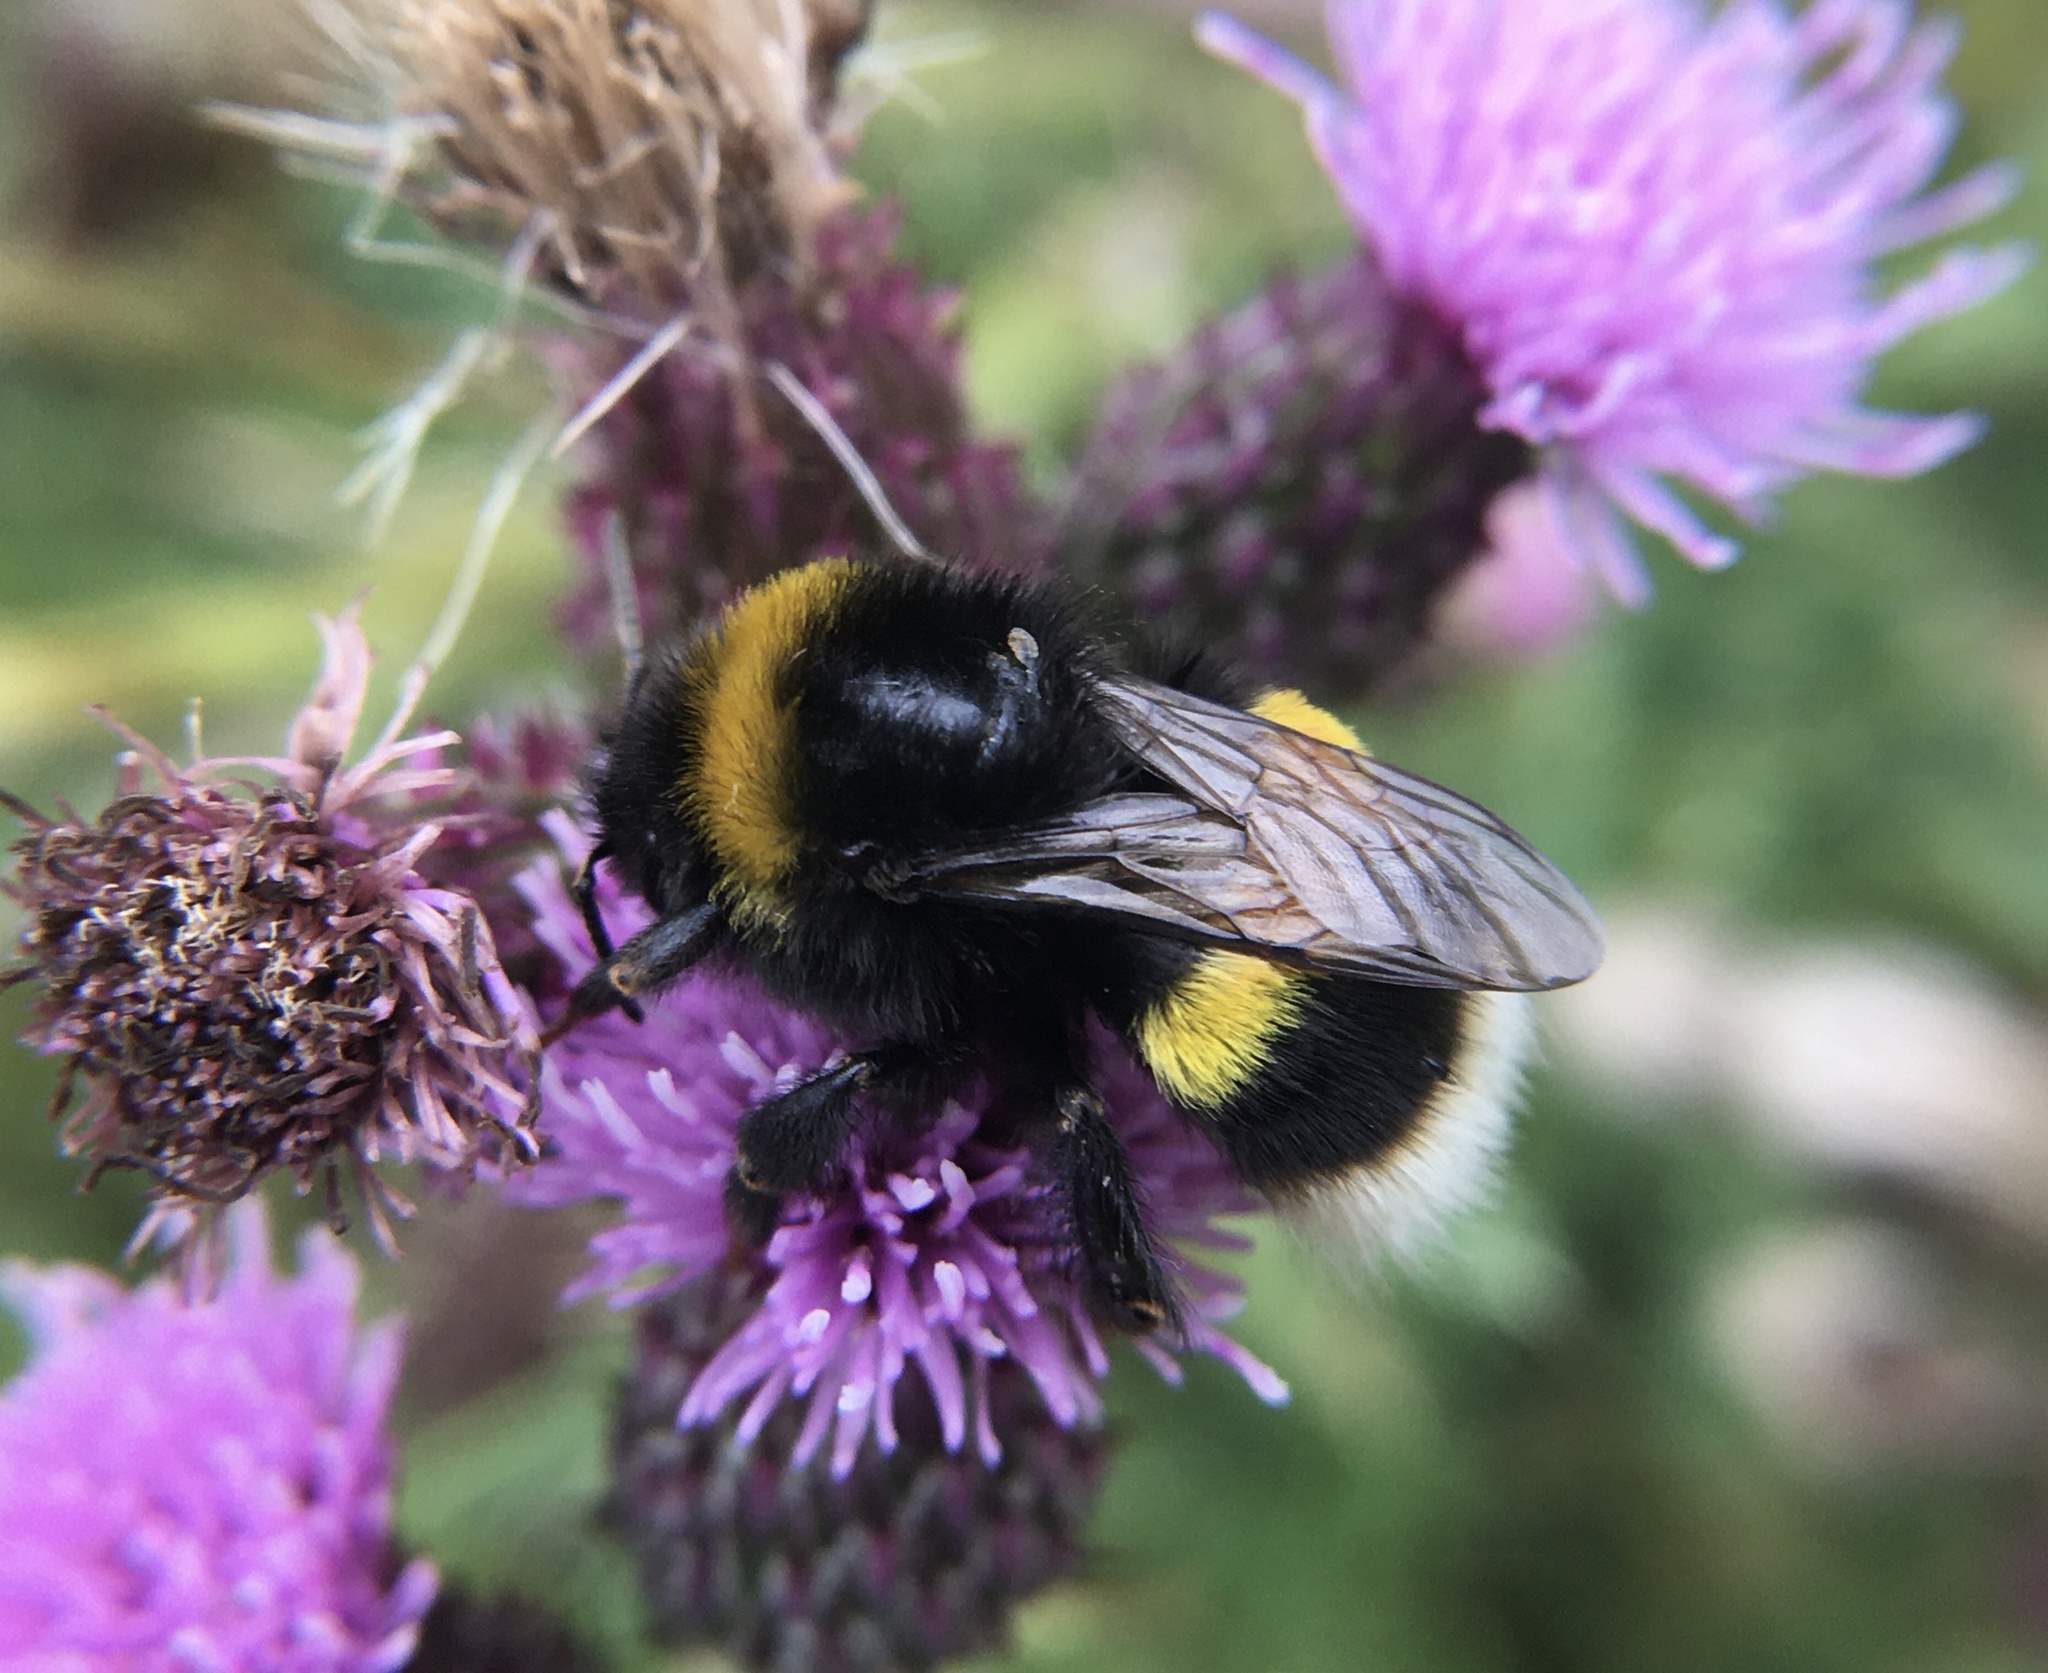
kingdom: Animalia
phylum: Arthropoda
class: Insecta
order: Hymenoptera
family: Apidae
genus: Bombus
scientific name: Bombus
